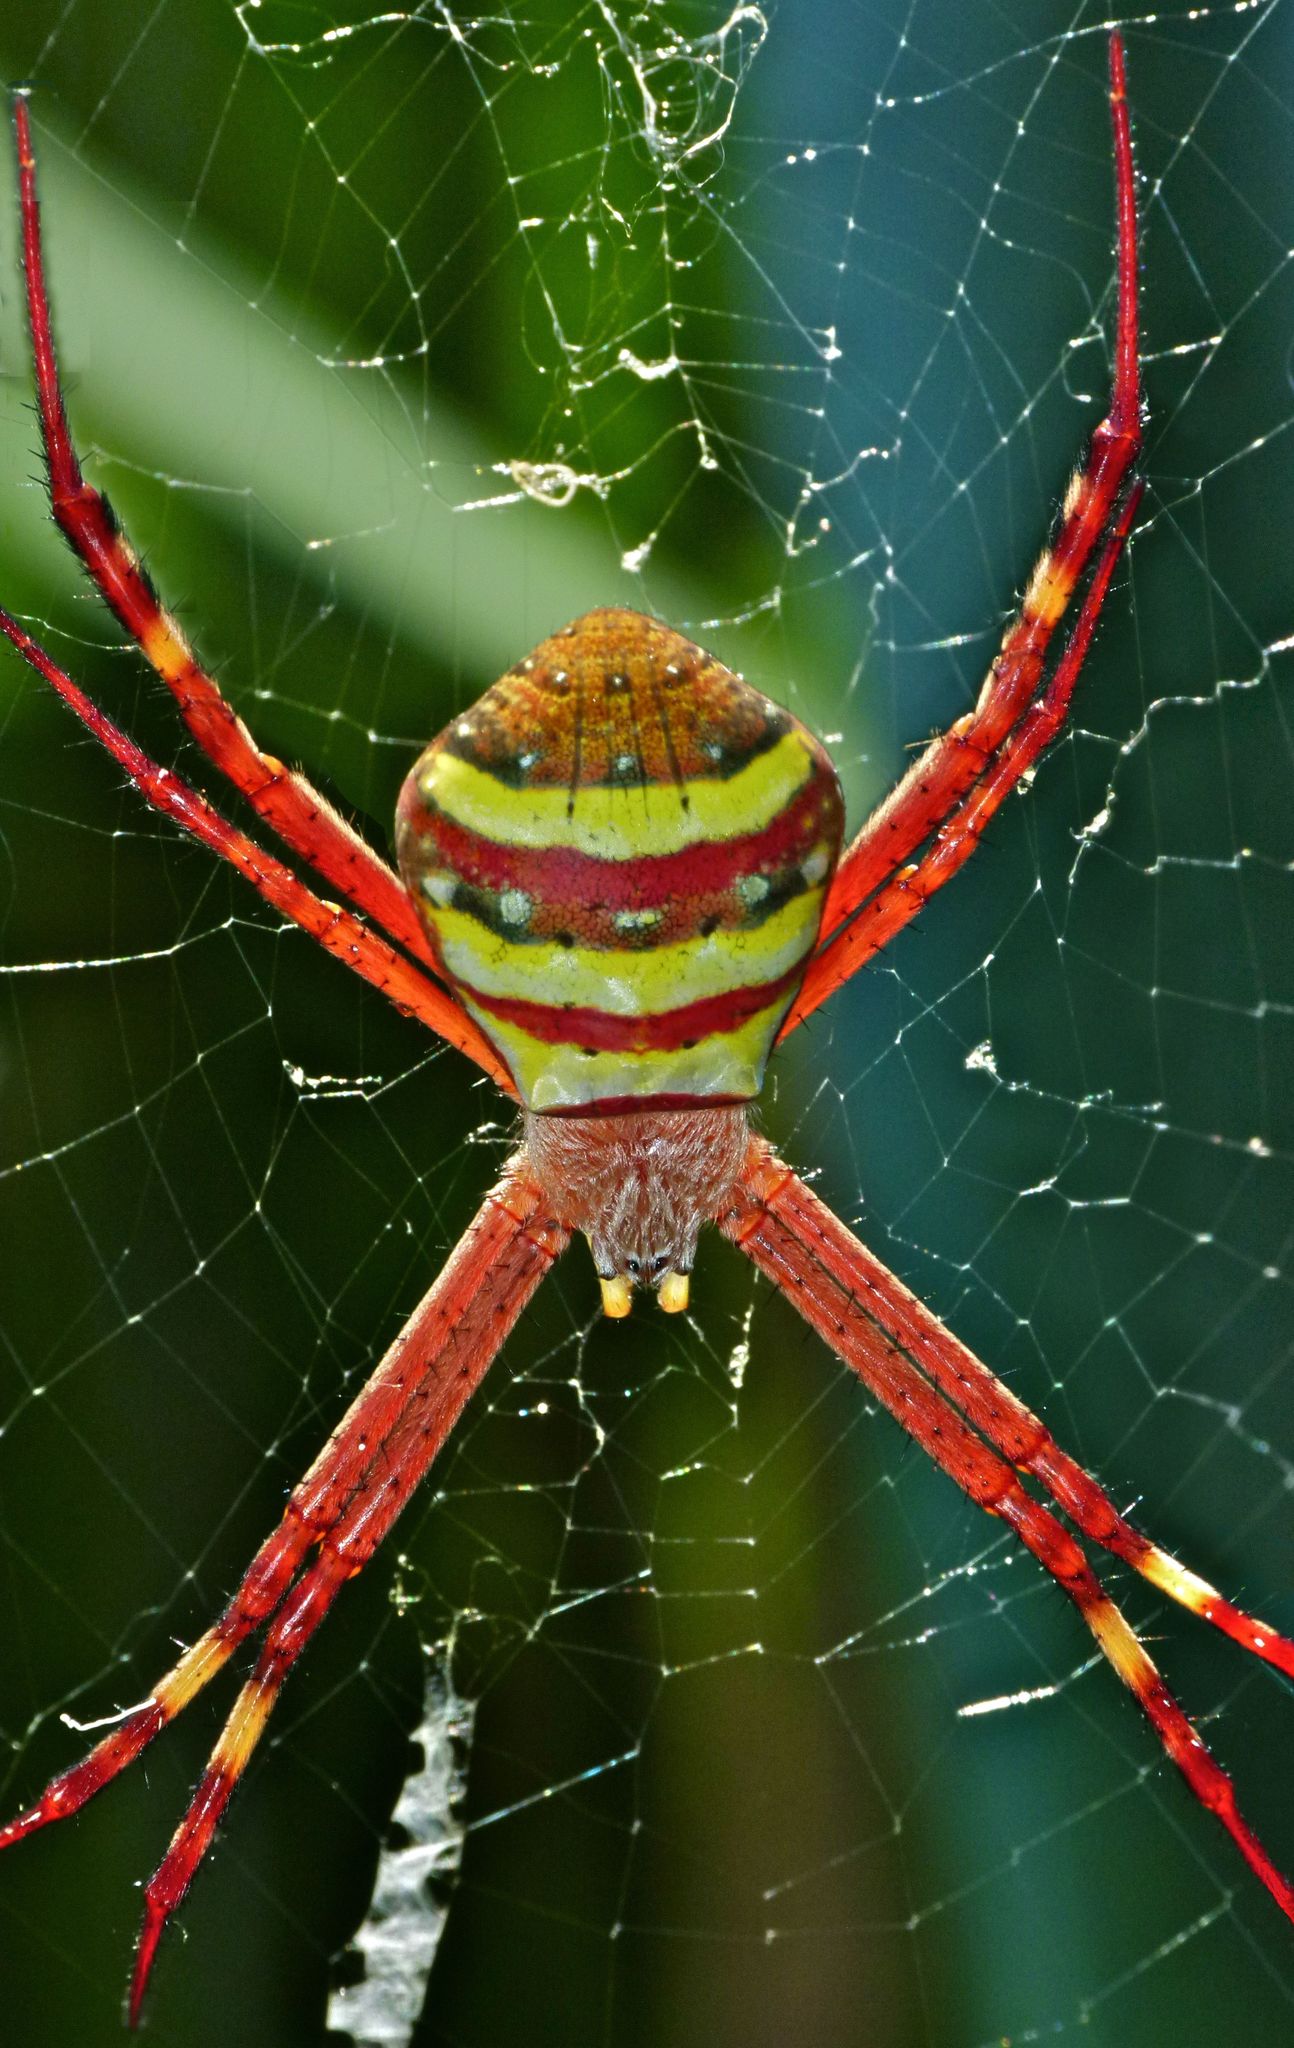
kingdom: Animalia
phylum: Arthropoda
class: Arachnida
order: Araneae
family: Araneidae
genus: Argiope
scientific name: Argiope keyserlingi
